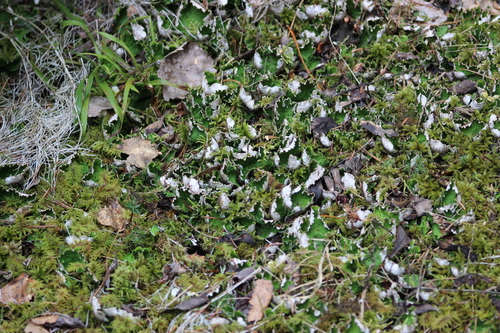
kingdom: Fungi
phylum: Ascomycota
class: Lecanoromycetes
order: Peltigerales
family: Peltigeraceae
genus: Peltigera
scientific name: Peltigera aphthosa
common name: Common freckle pelt lichen
